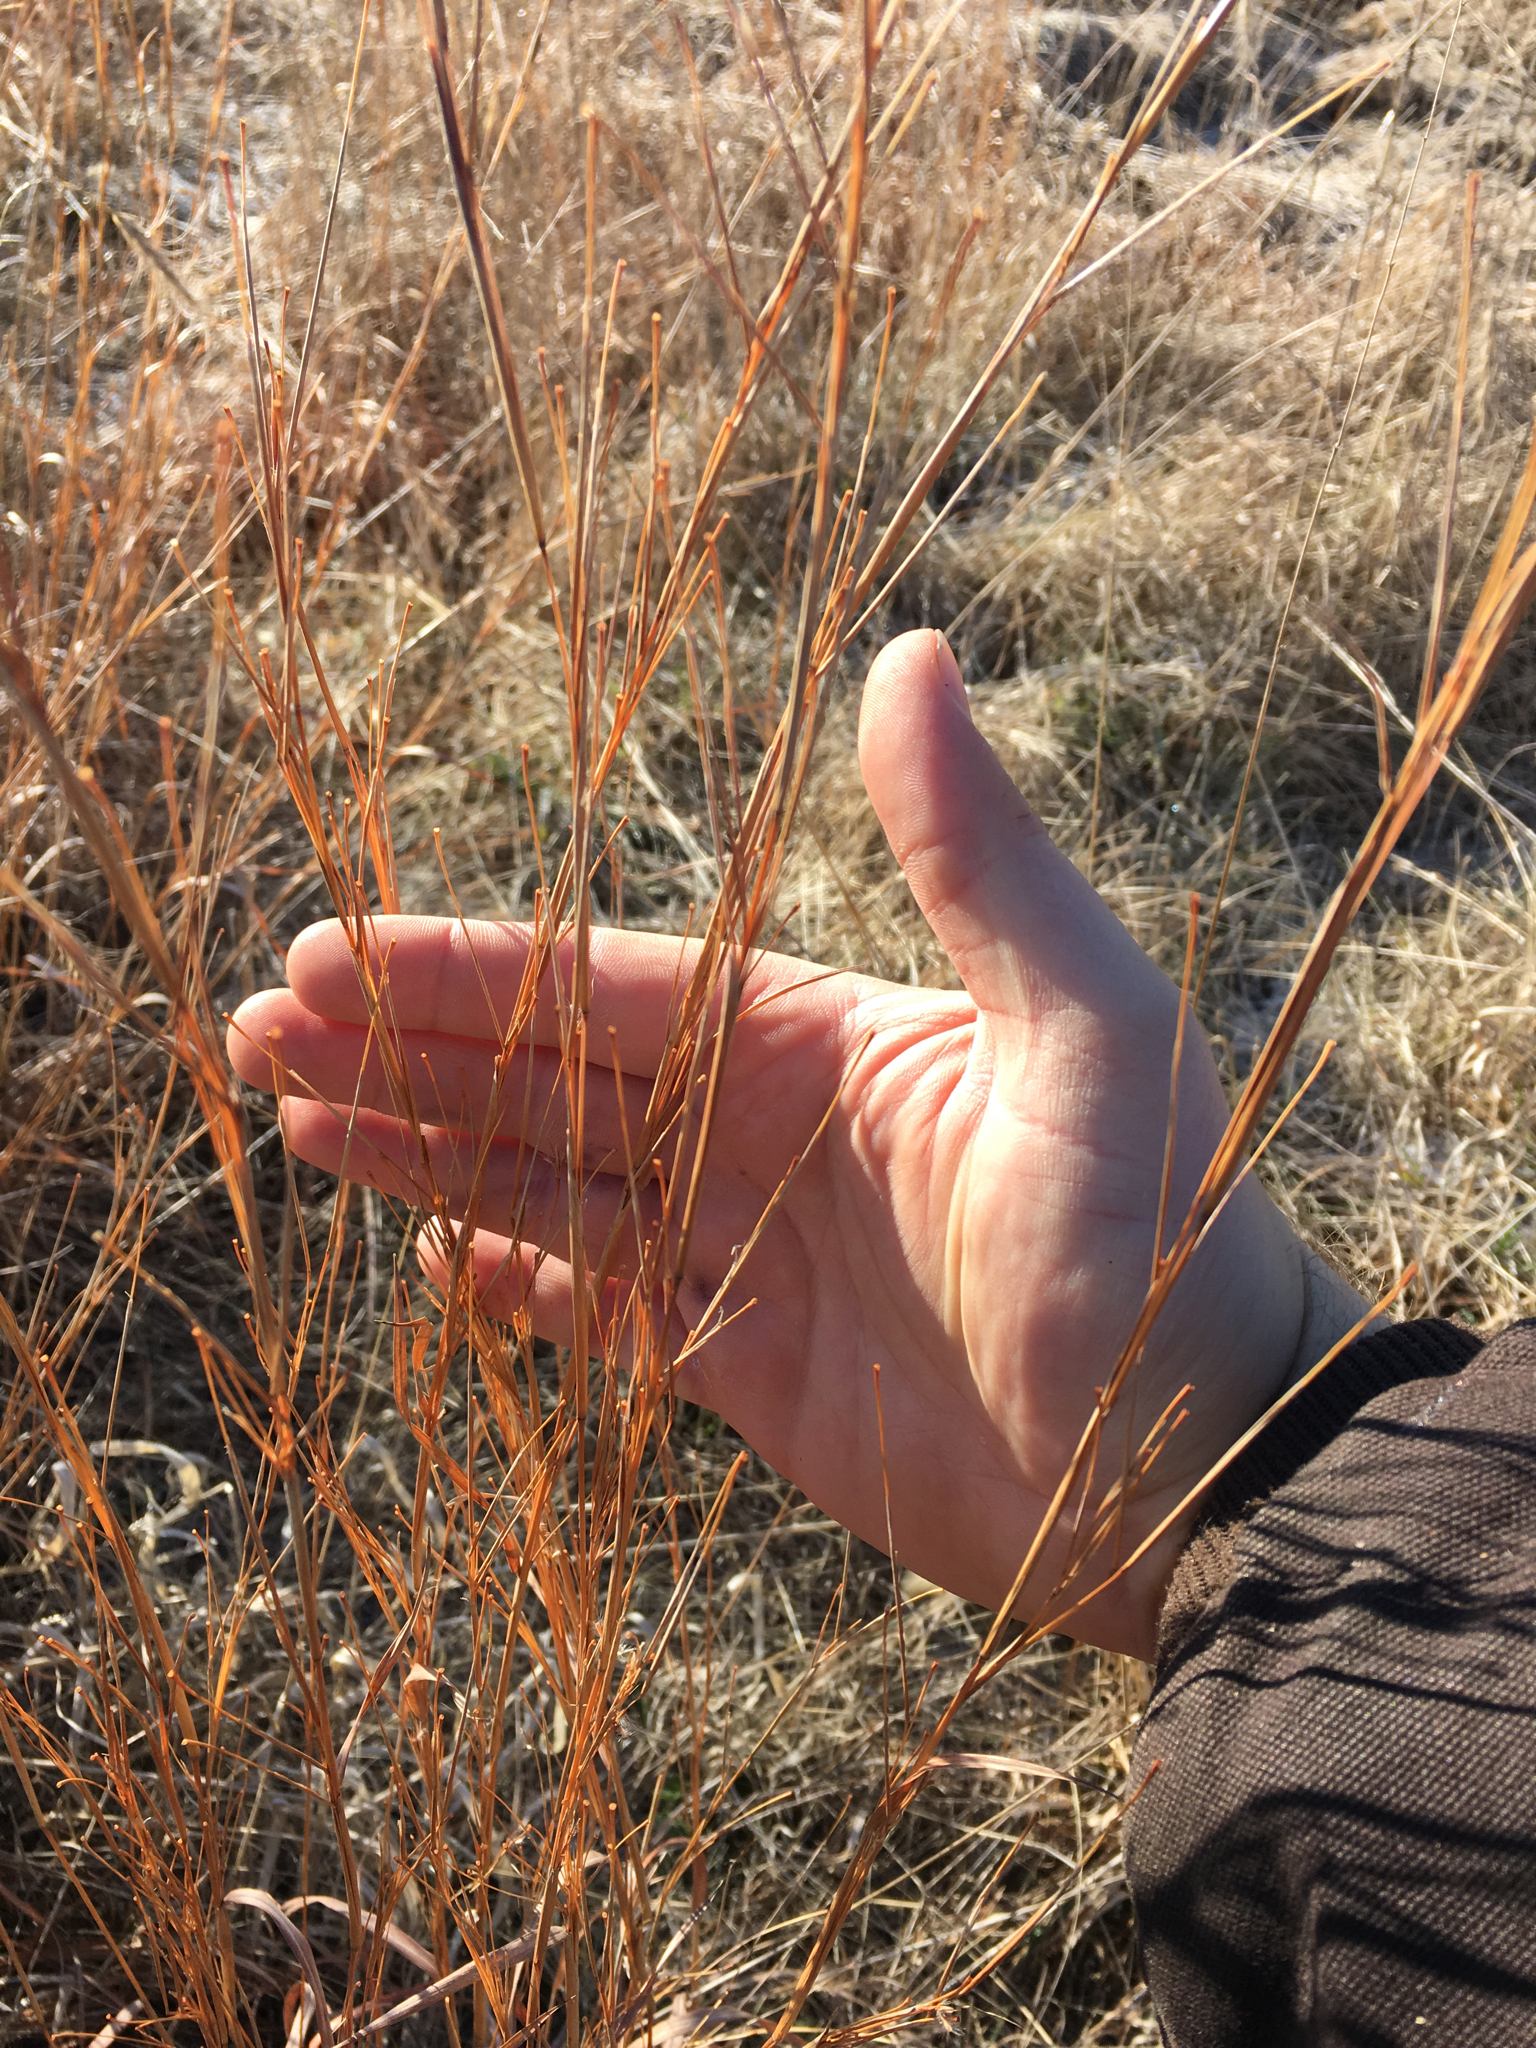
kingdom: Plantae
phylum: Tracheophyta
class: Liliopsida
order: Poales
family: Poaceae
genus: Schizachyrium
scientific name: Schizachyrium scoparium
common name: Little bluestem
